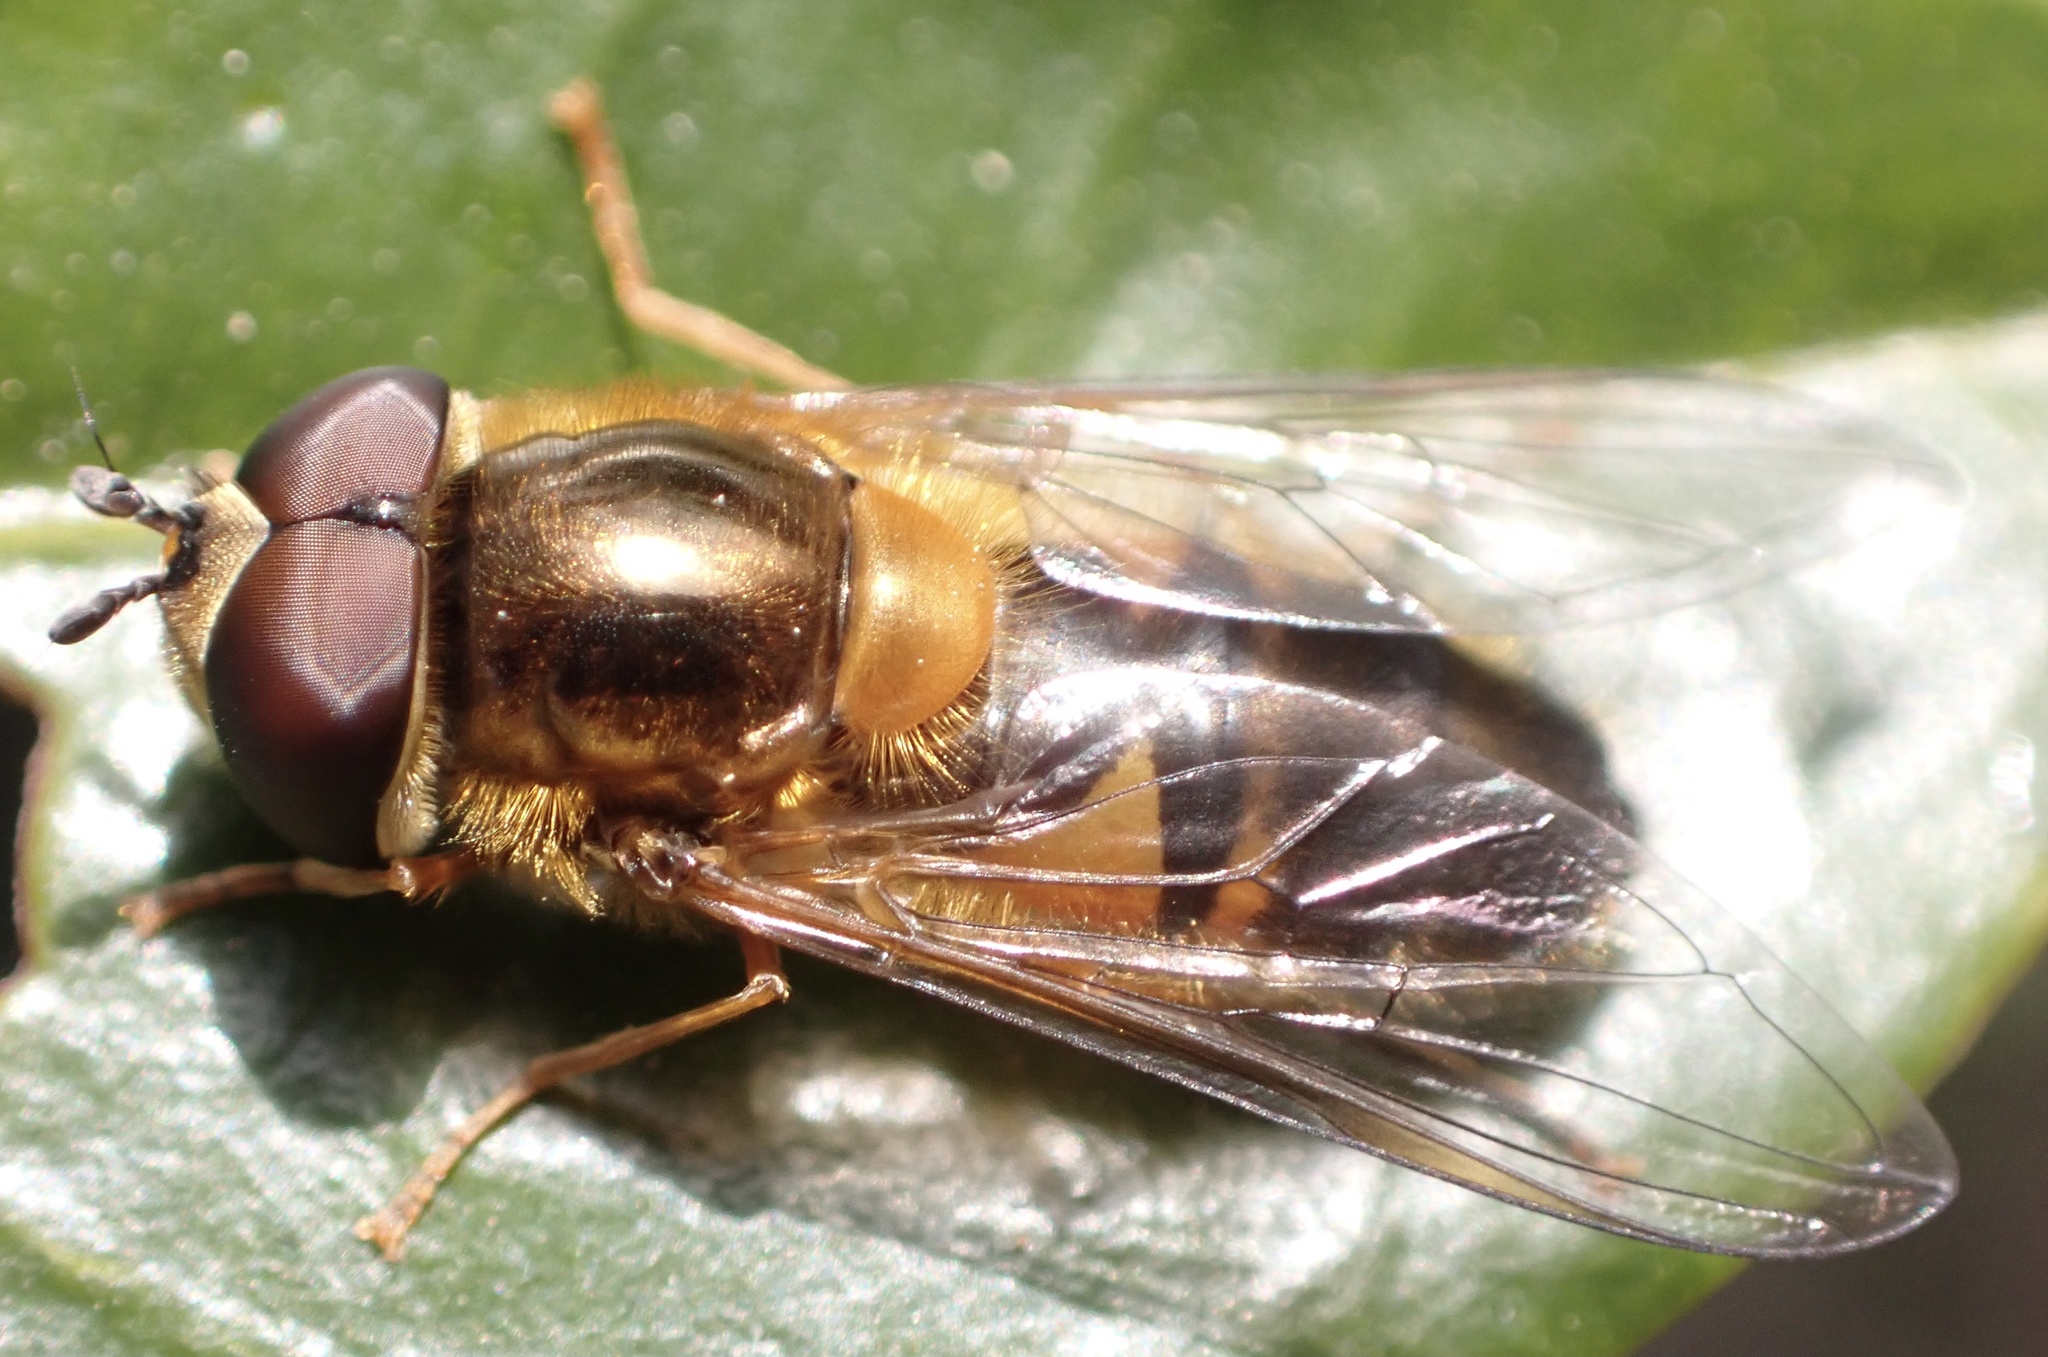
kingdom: Animalia
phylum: Arthropoda
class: Insecta
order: Diptera
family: Syrphidae
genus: Epistrophe
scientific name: Epistrophe eligans
